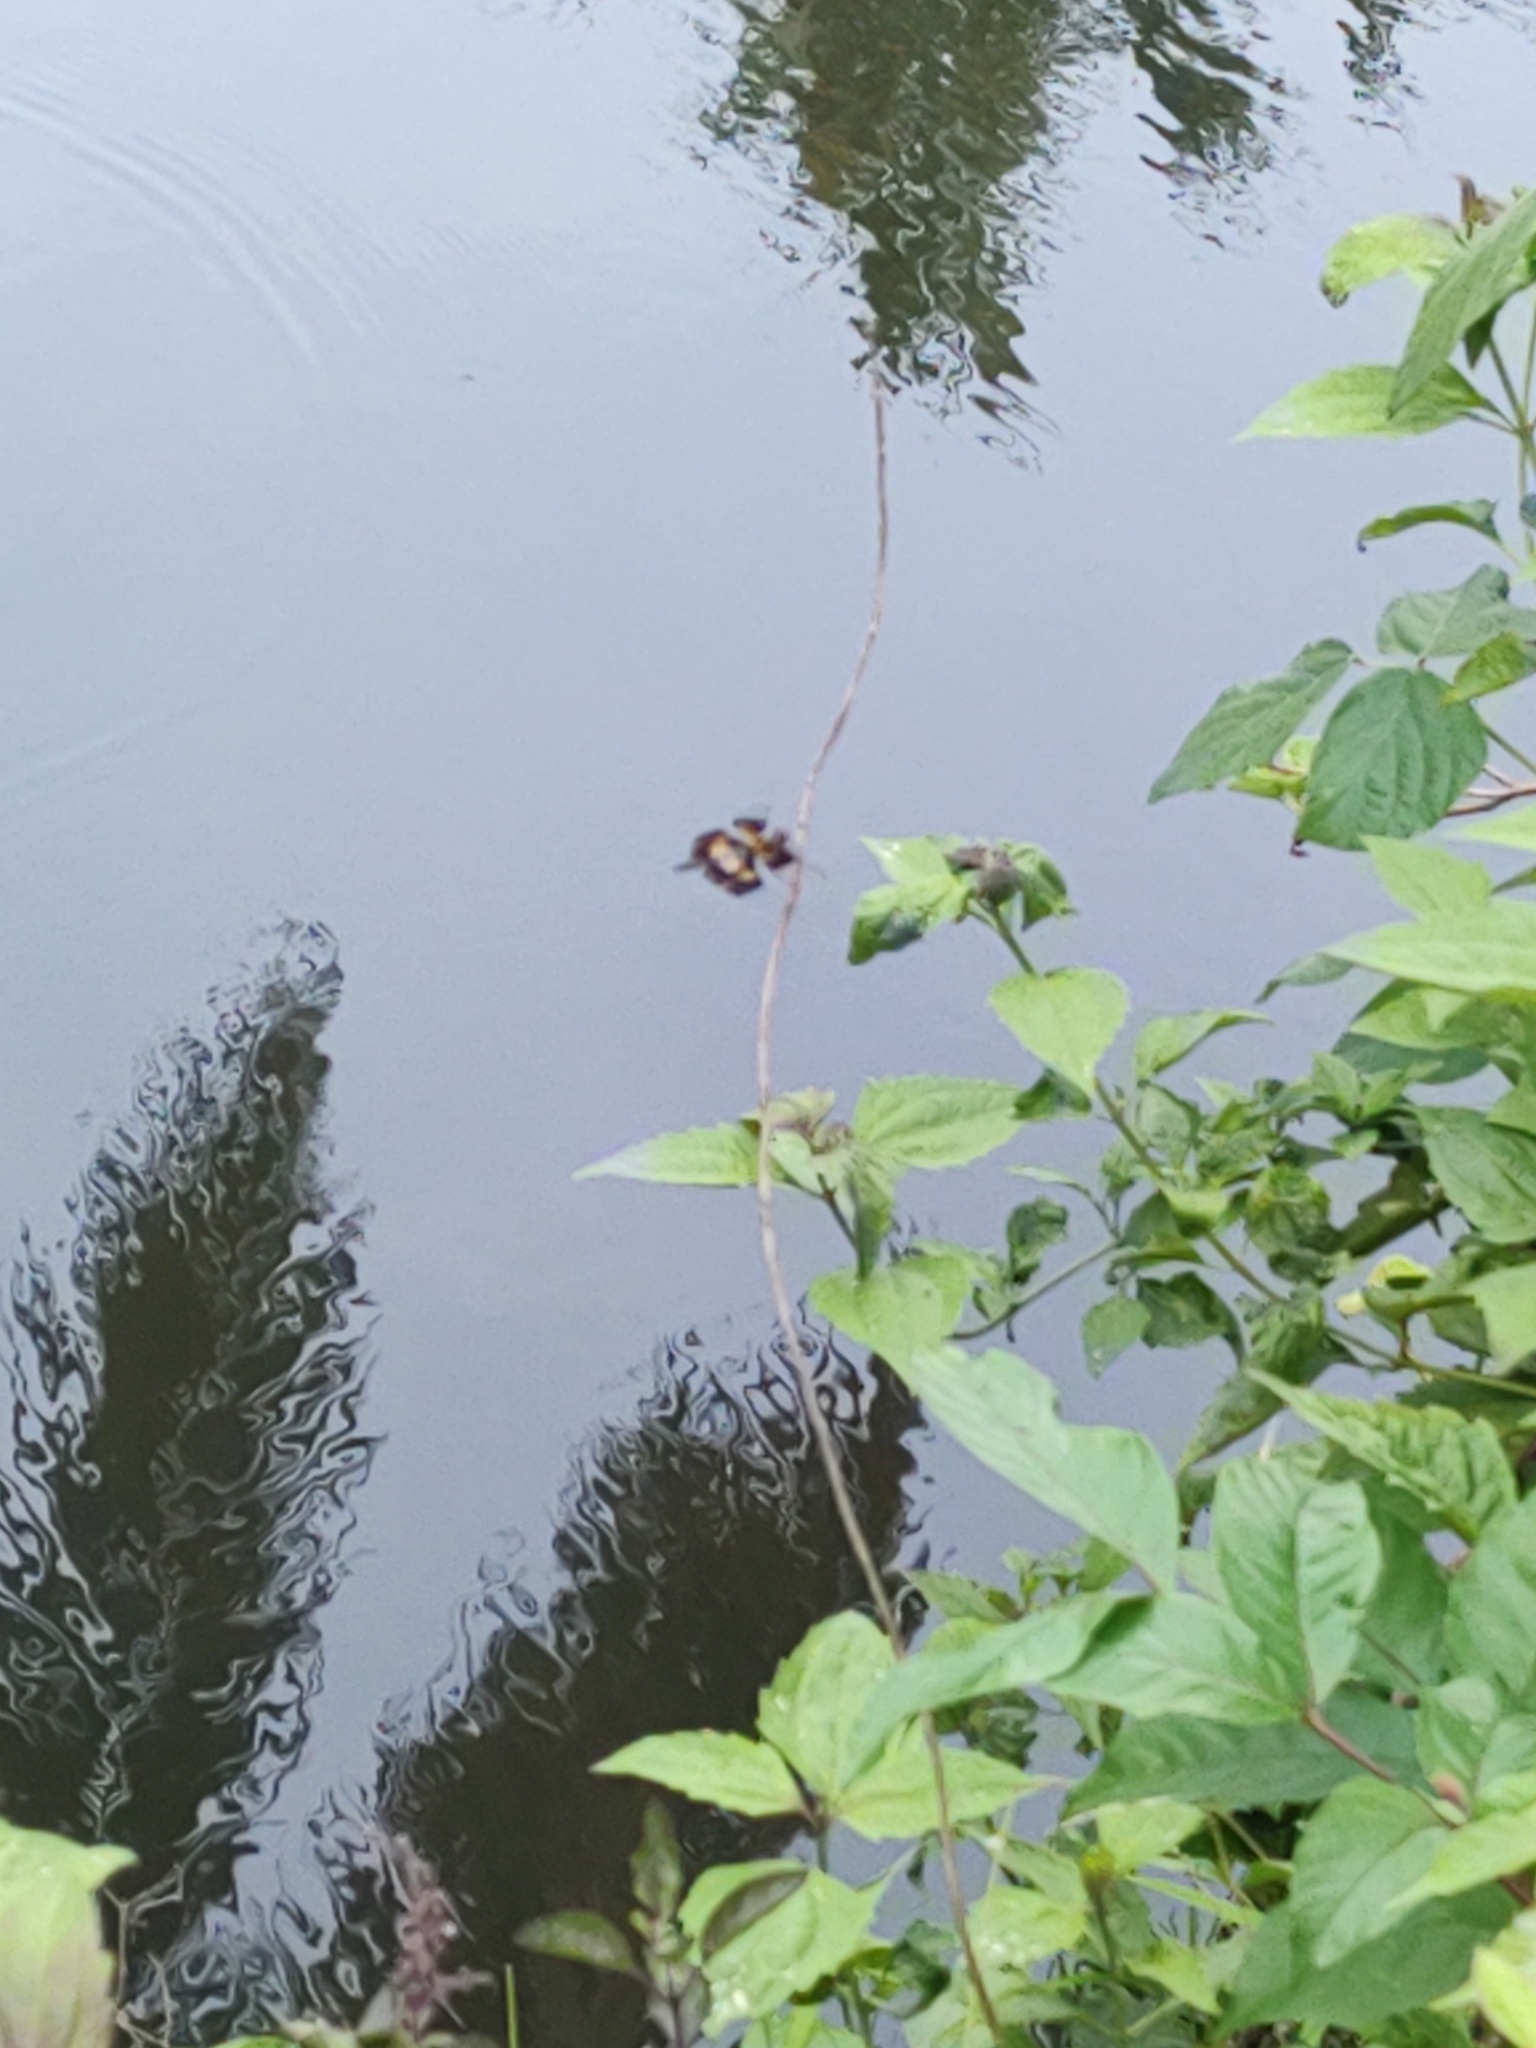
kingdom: Animalia
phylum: Arthropoda
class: Insecta
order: Odonata
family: Libellulidae
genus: Rhyothemis
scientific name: Rhyothemis variegata
